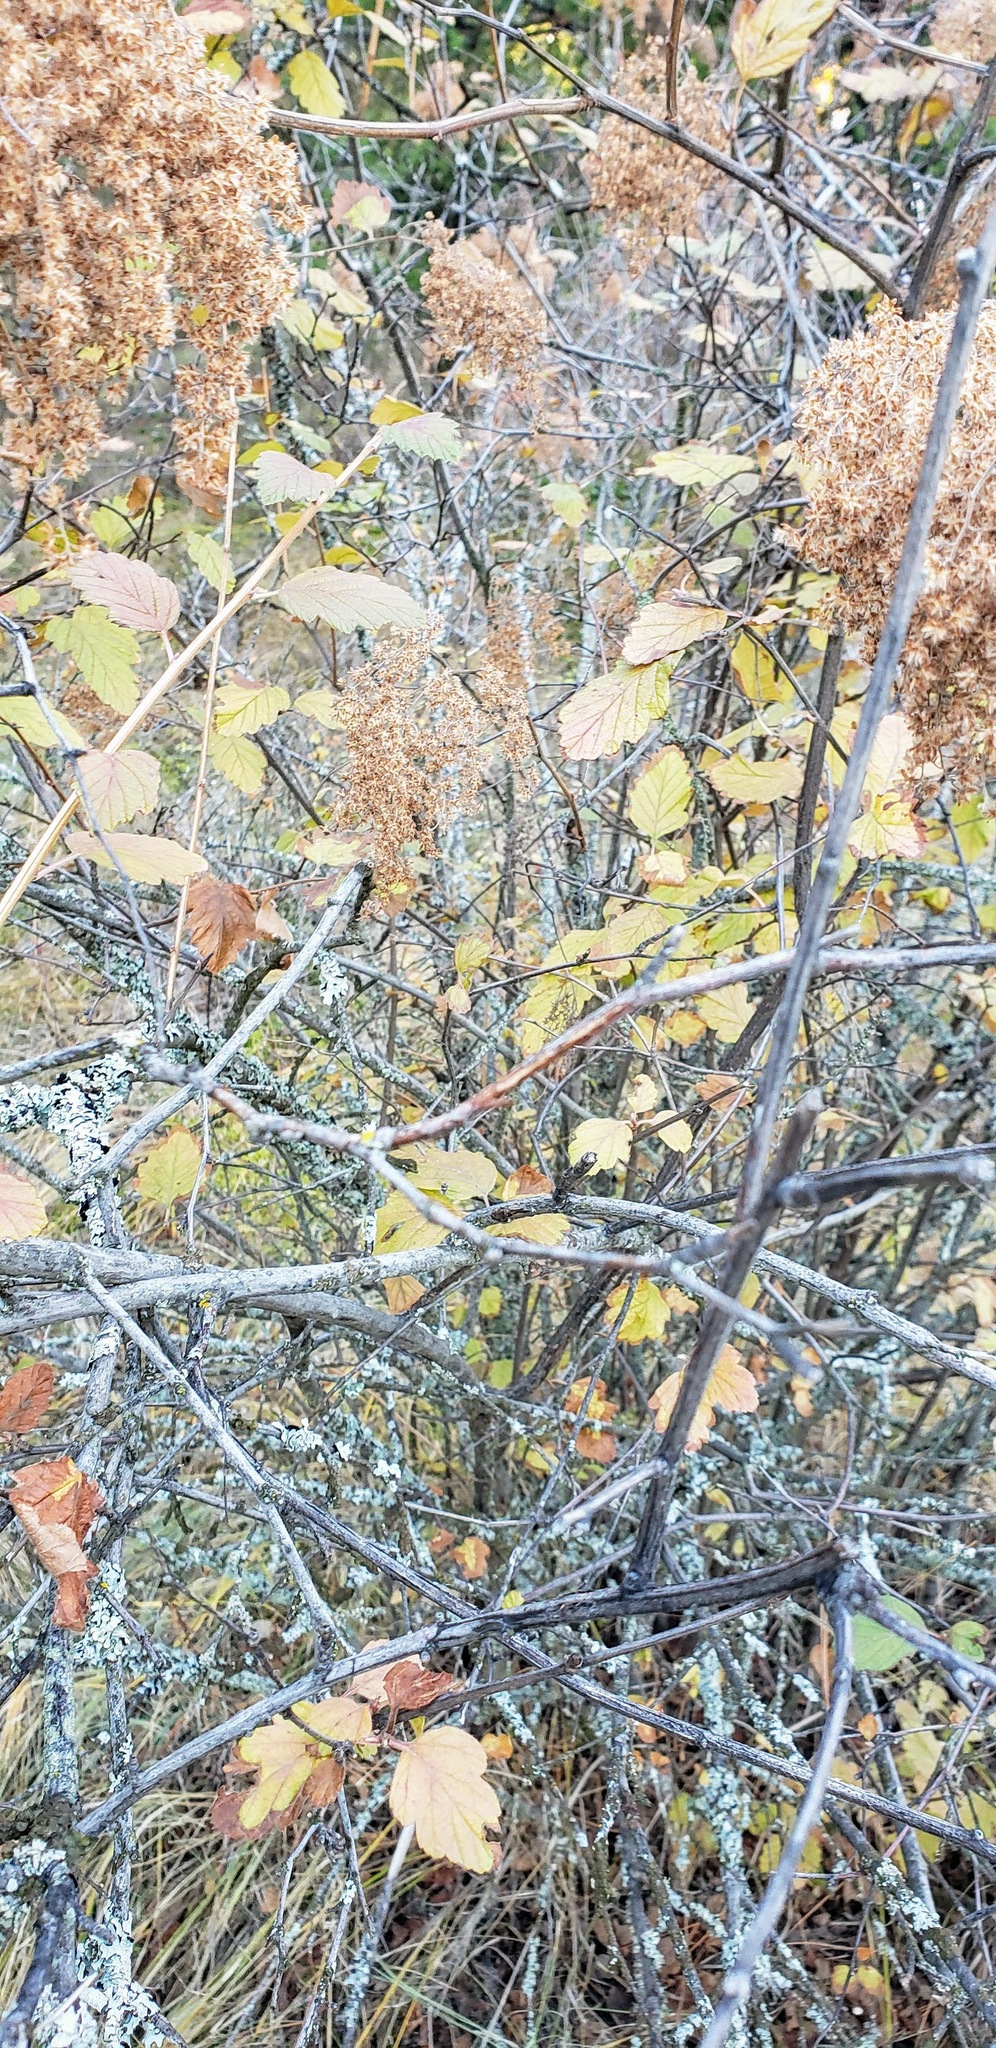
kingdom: Plantae
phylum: Tracheophyta
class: Magnoliopsida
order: Rosales
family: Rosaceae
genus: Holodiscus
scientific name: Holodiscus discolor
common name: Oceanspray
